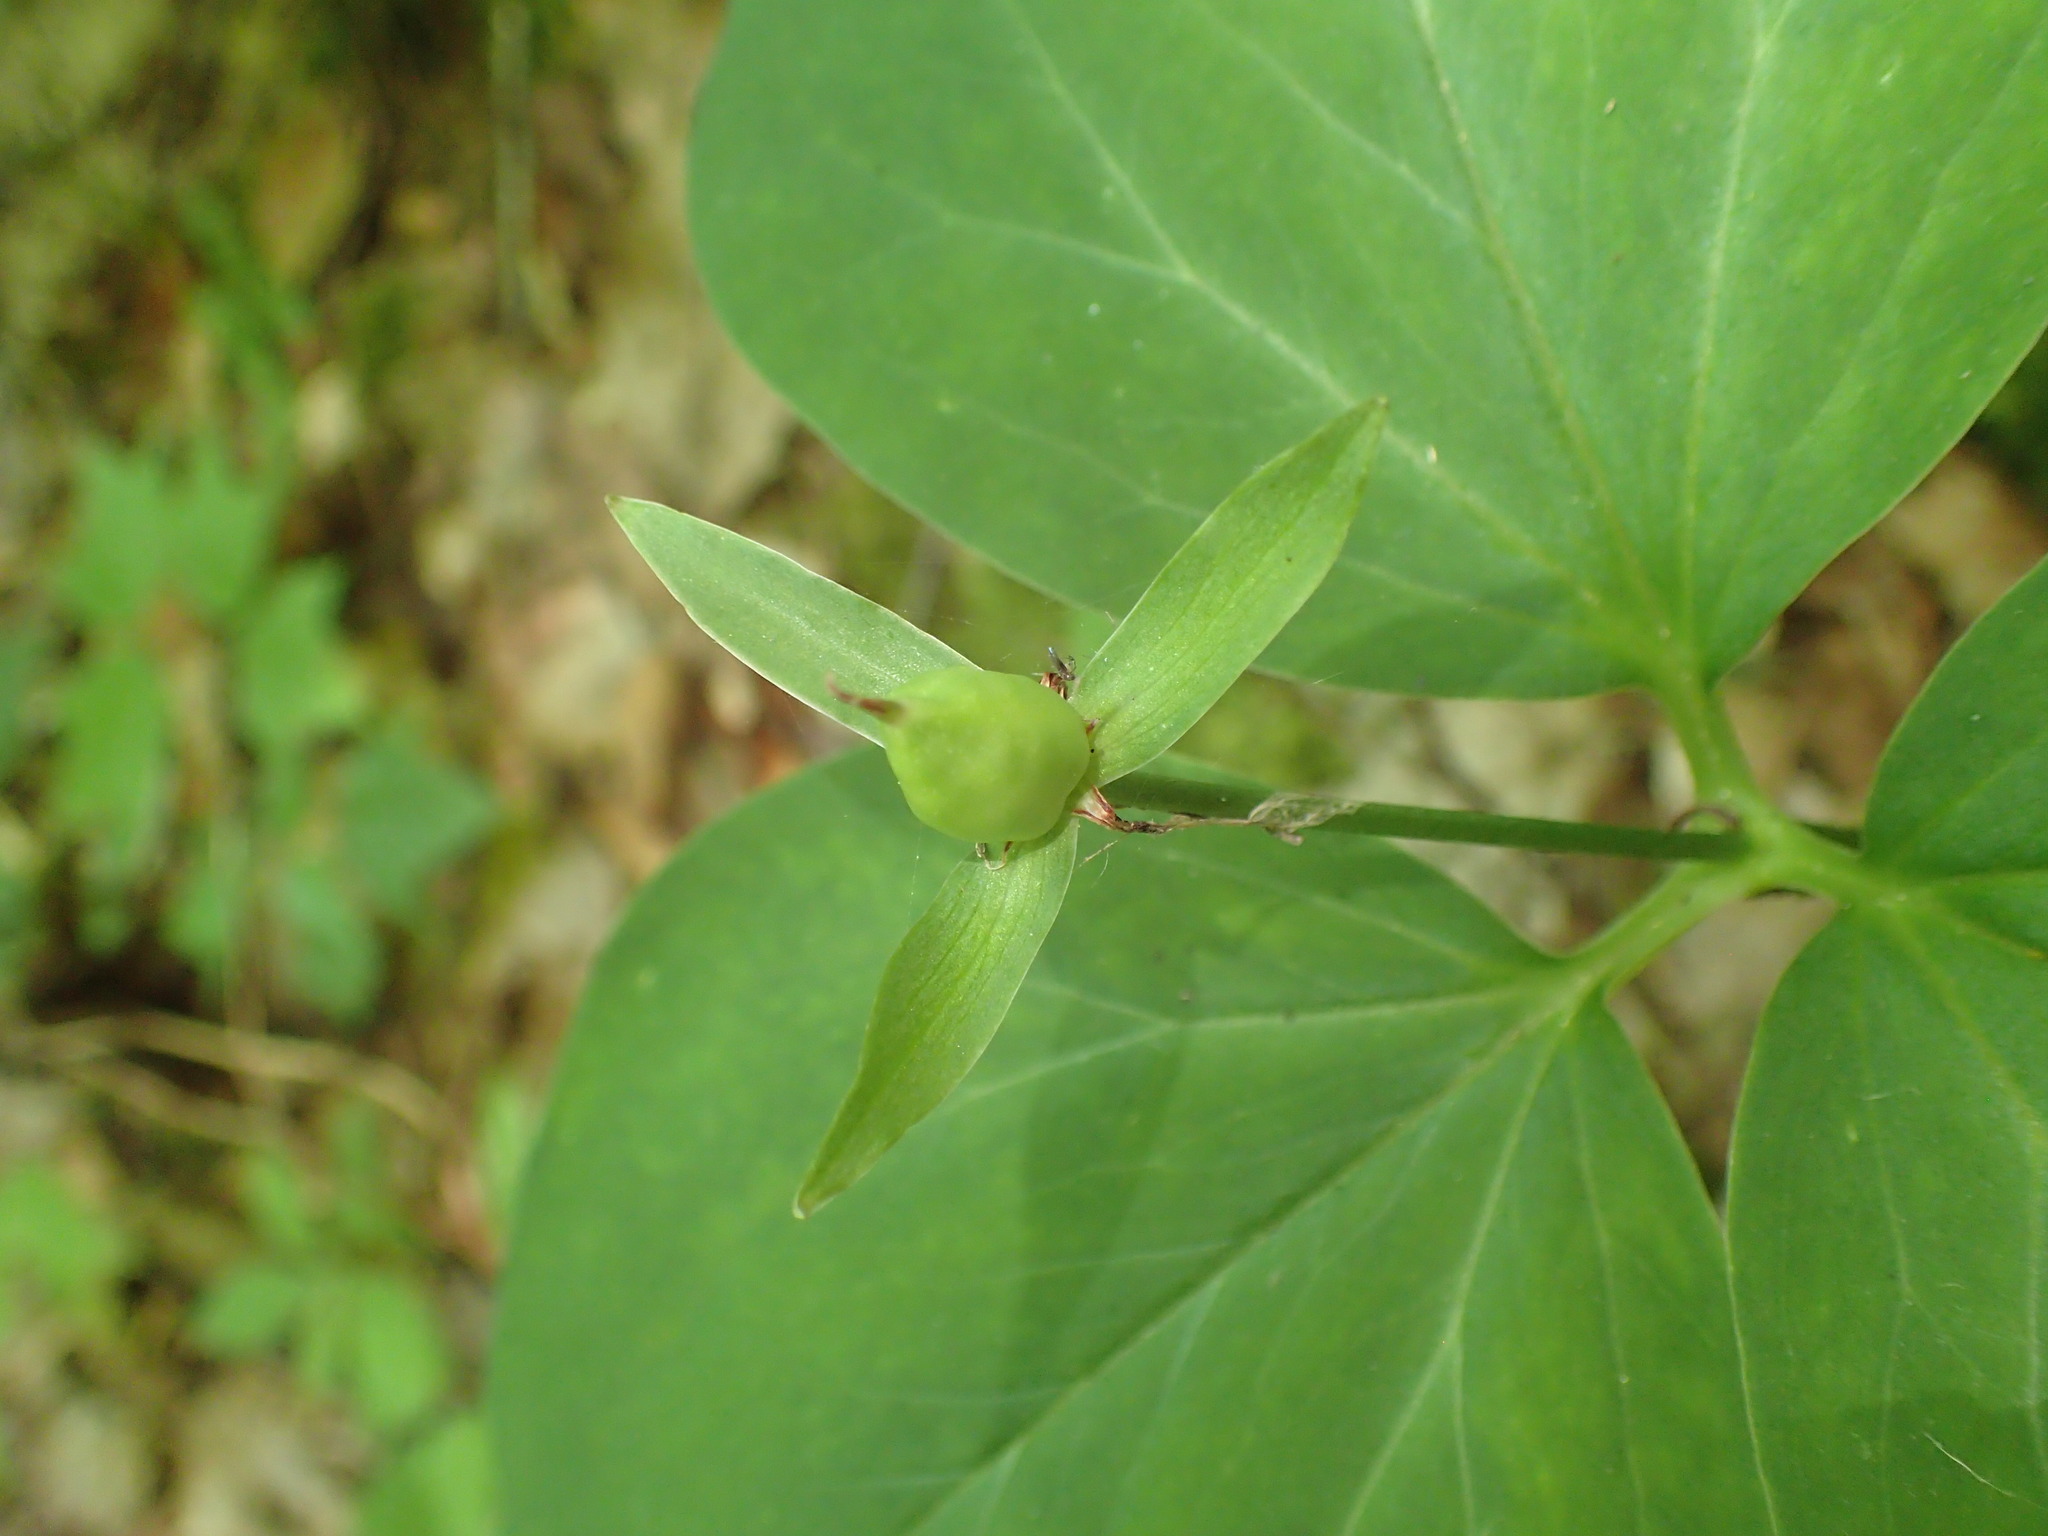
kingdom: Plantae
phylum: Tracheophyta
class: Liliopsida
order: Liliales
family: Melanthiaceae
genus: Trillium
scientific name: Trillium undulatum
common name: Paint trillium
